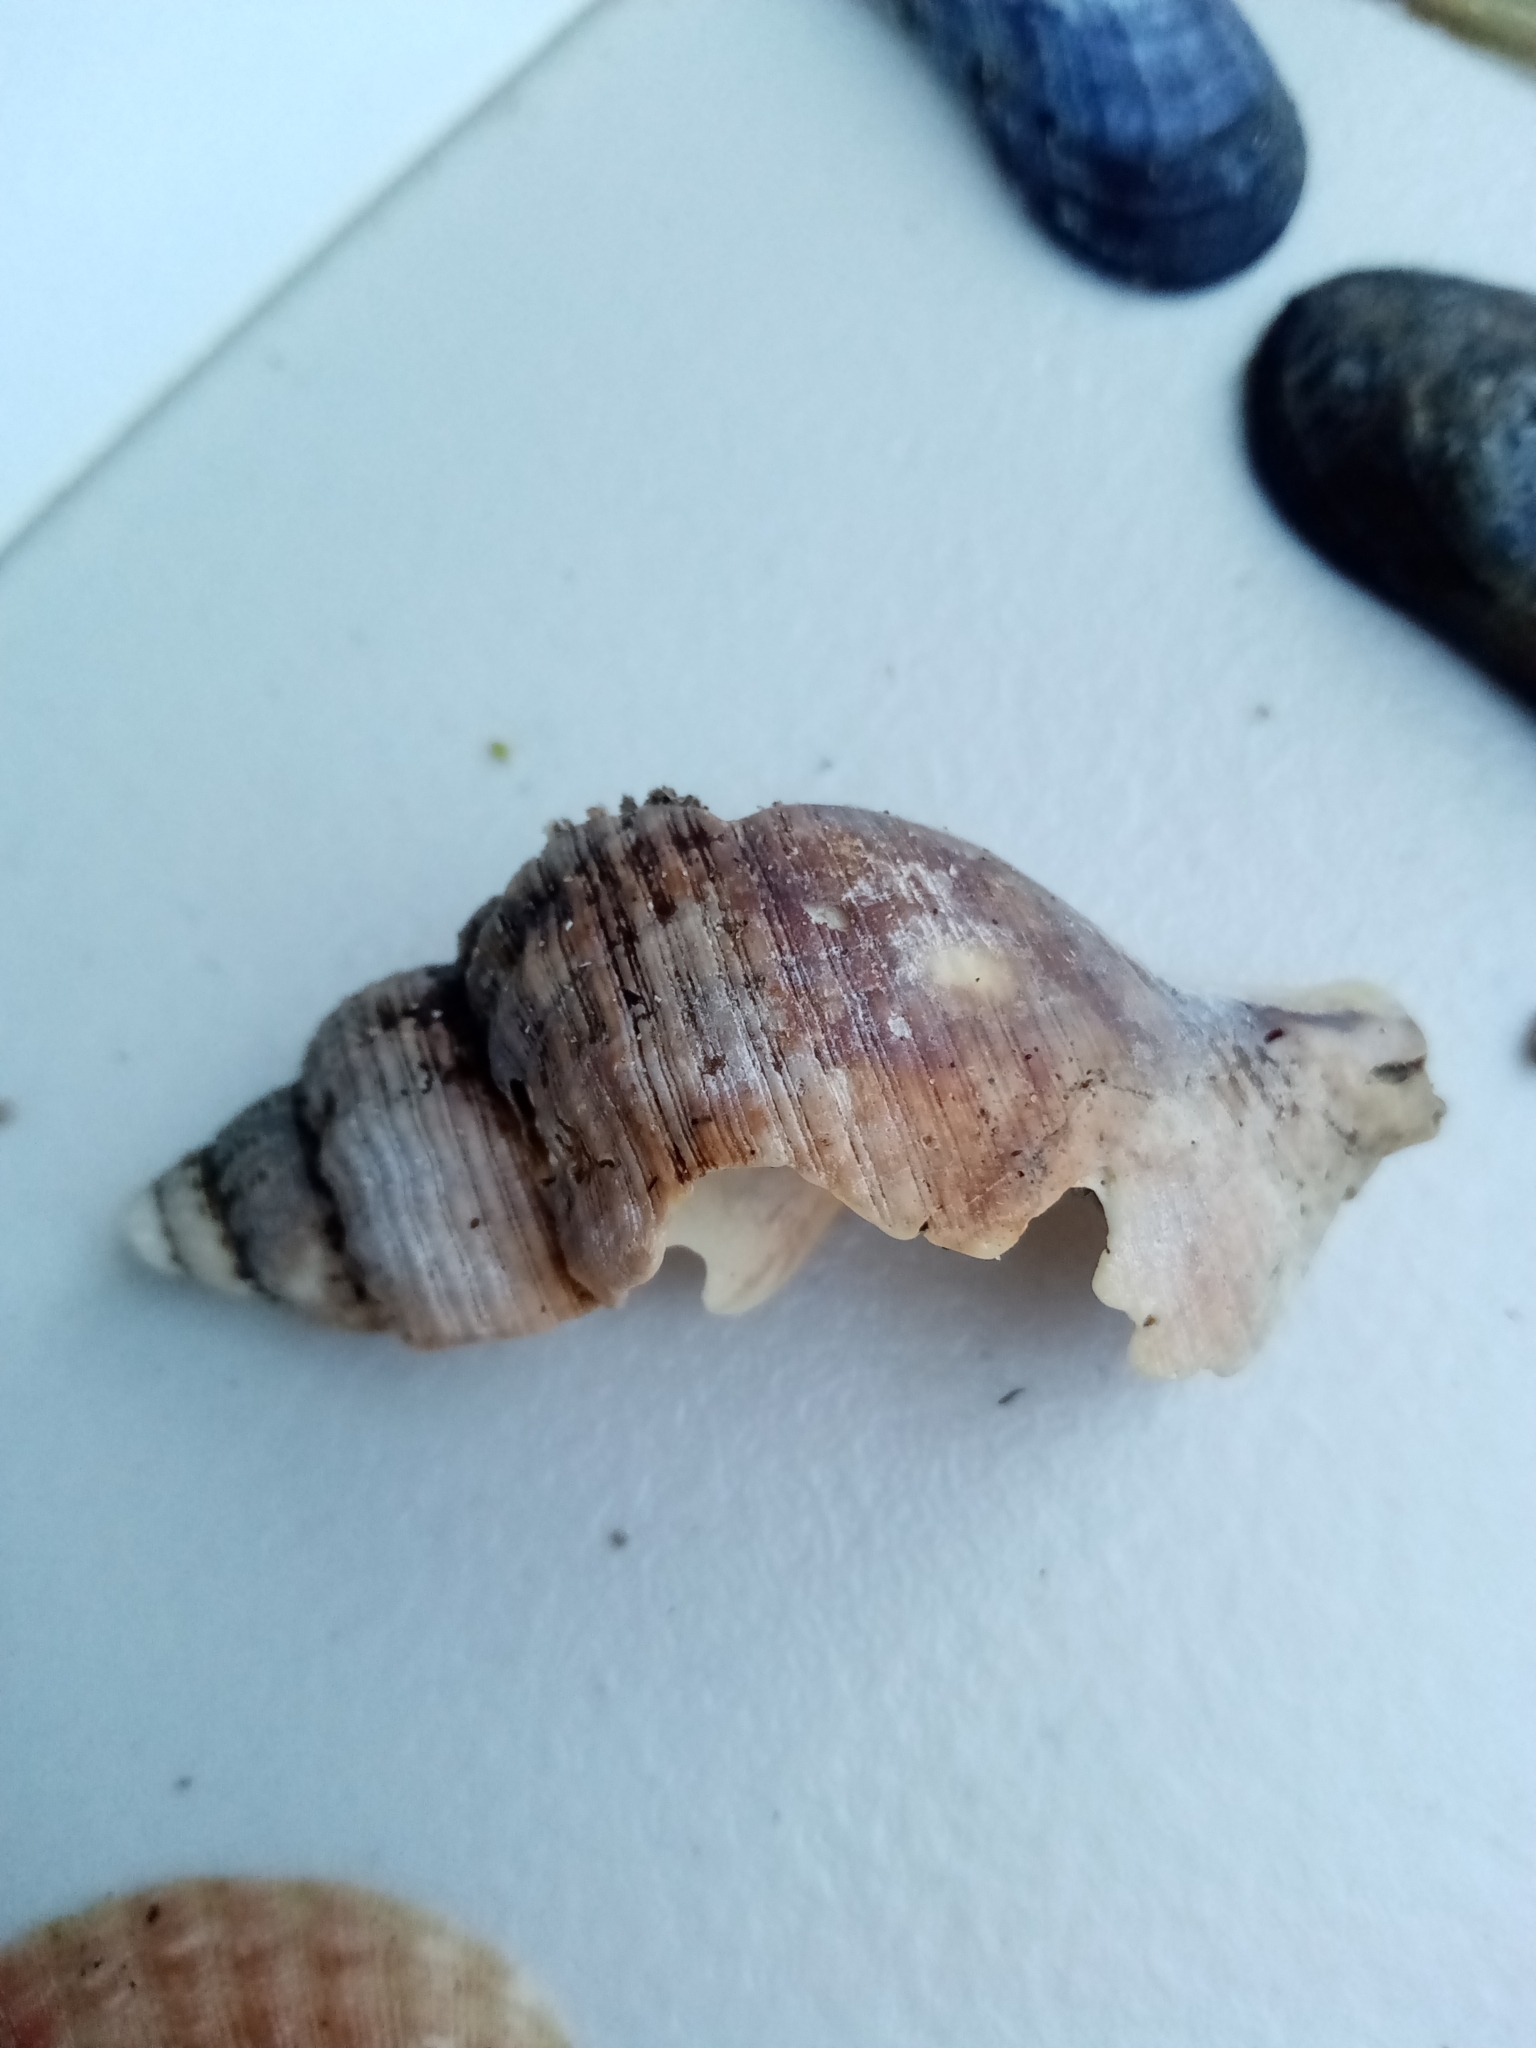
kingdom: Animalia
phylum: Mollusca
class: Gastropoda
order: Neogastropoda
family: Buccinidae
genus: Buccinum
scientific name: Buccinum undatum
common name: Common whelk
